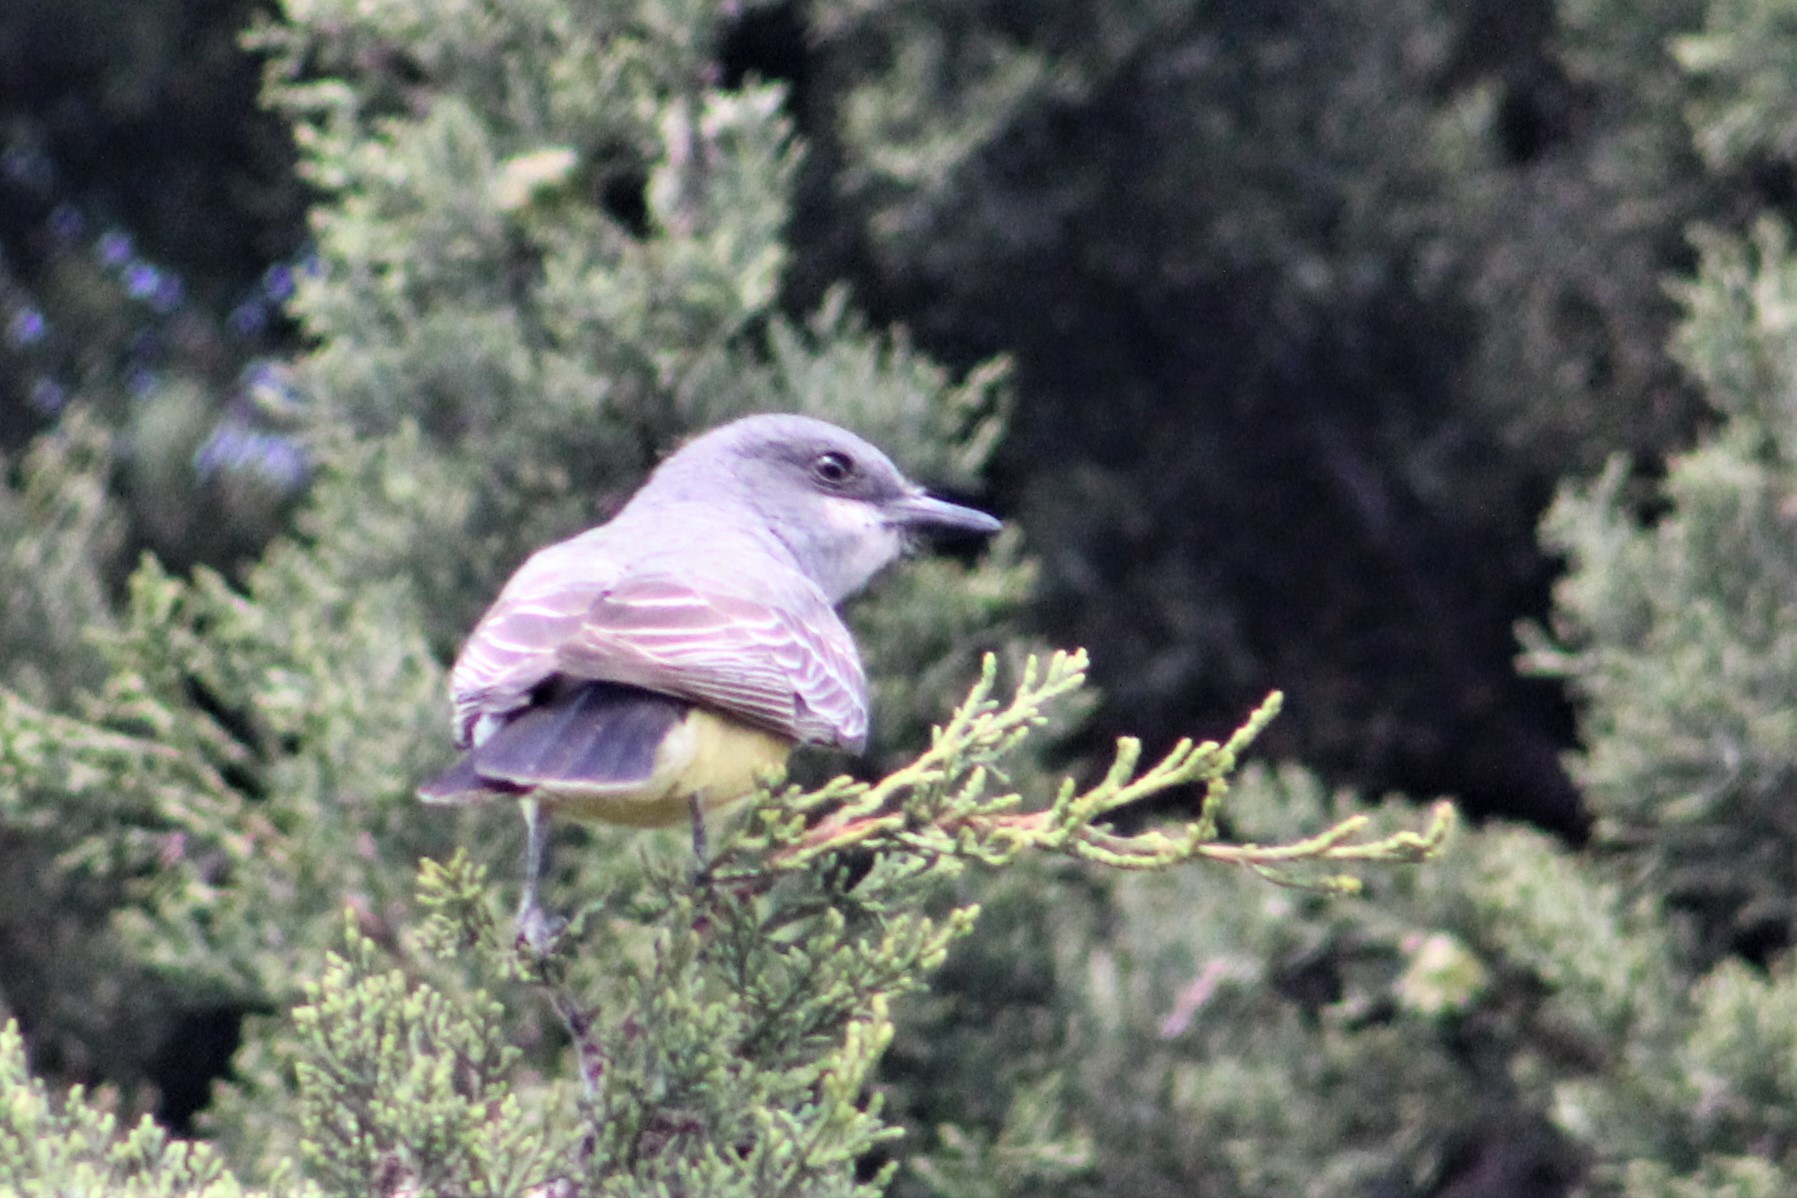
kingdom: Animalia
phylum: Chordata
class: Aves
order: Passeriformes
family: Tyrannidae
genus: Tyrannus
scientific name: Tyrannus vociferans
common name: Cassin's kingbird
